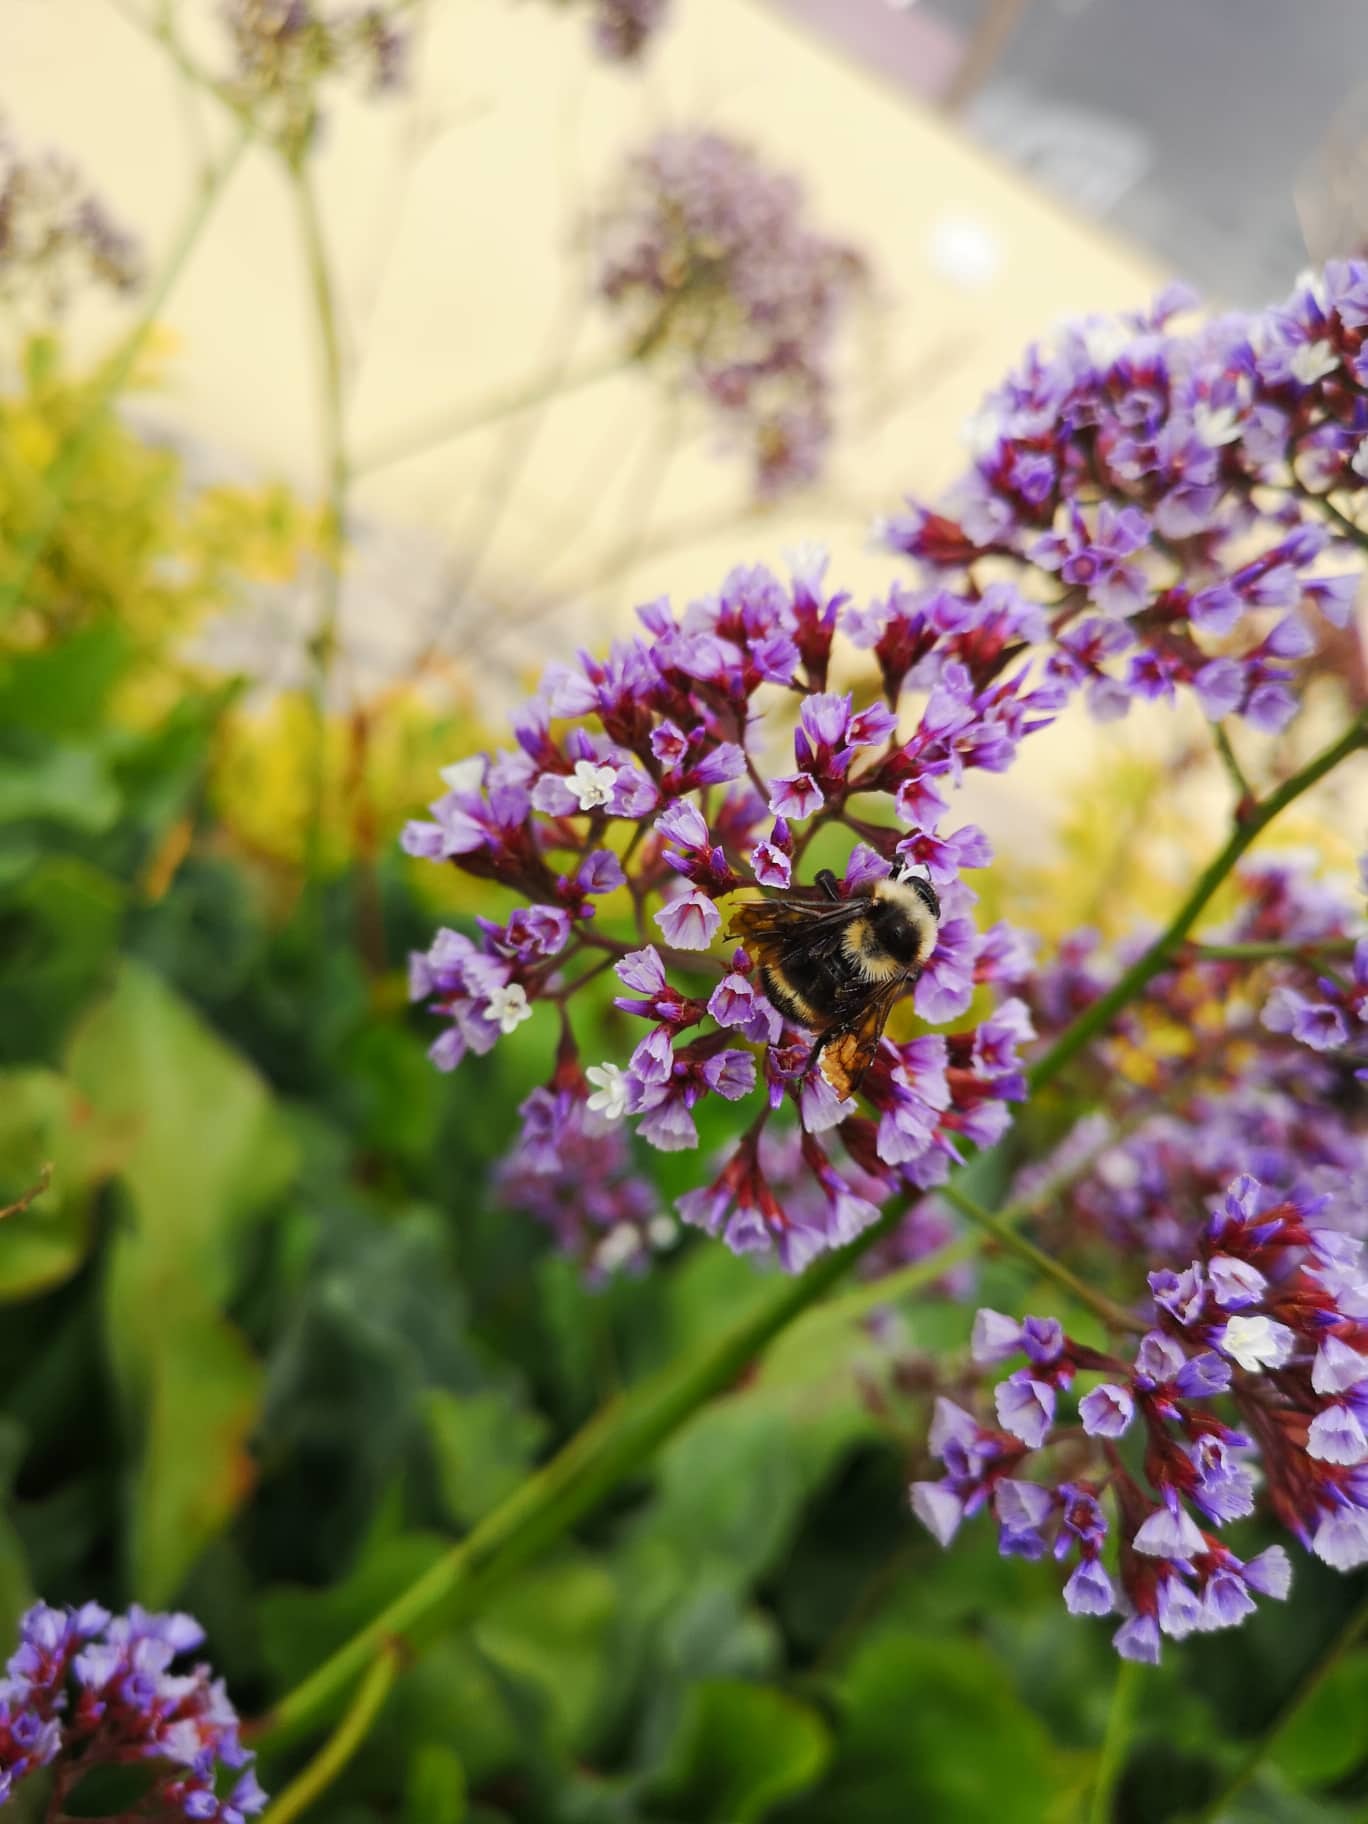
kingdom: Animalia
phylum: Arthropoda
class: Insecta
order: Hymenoptera
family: Apidae
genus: Bombus
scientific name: Bombus pauloensis
